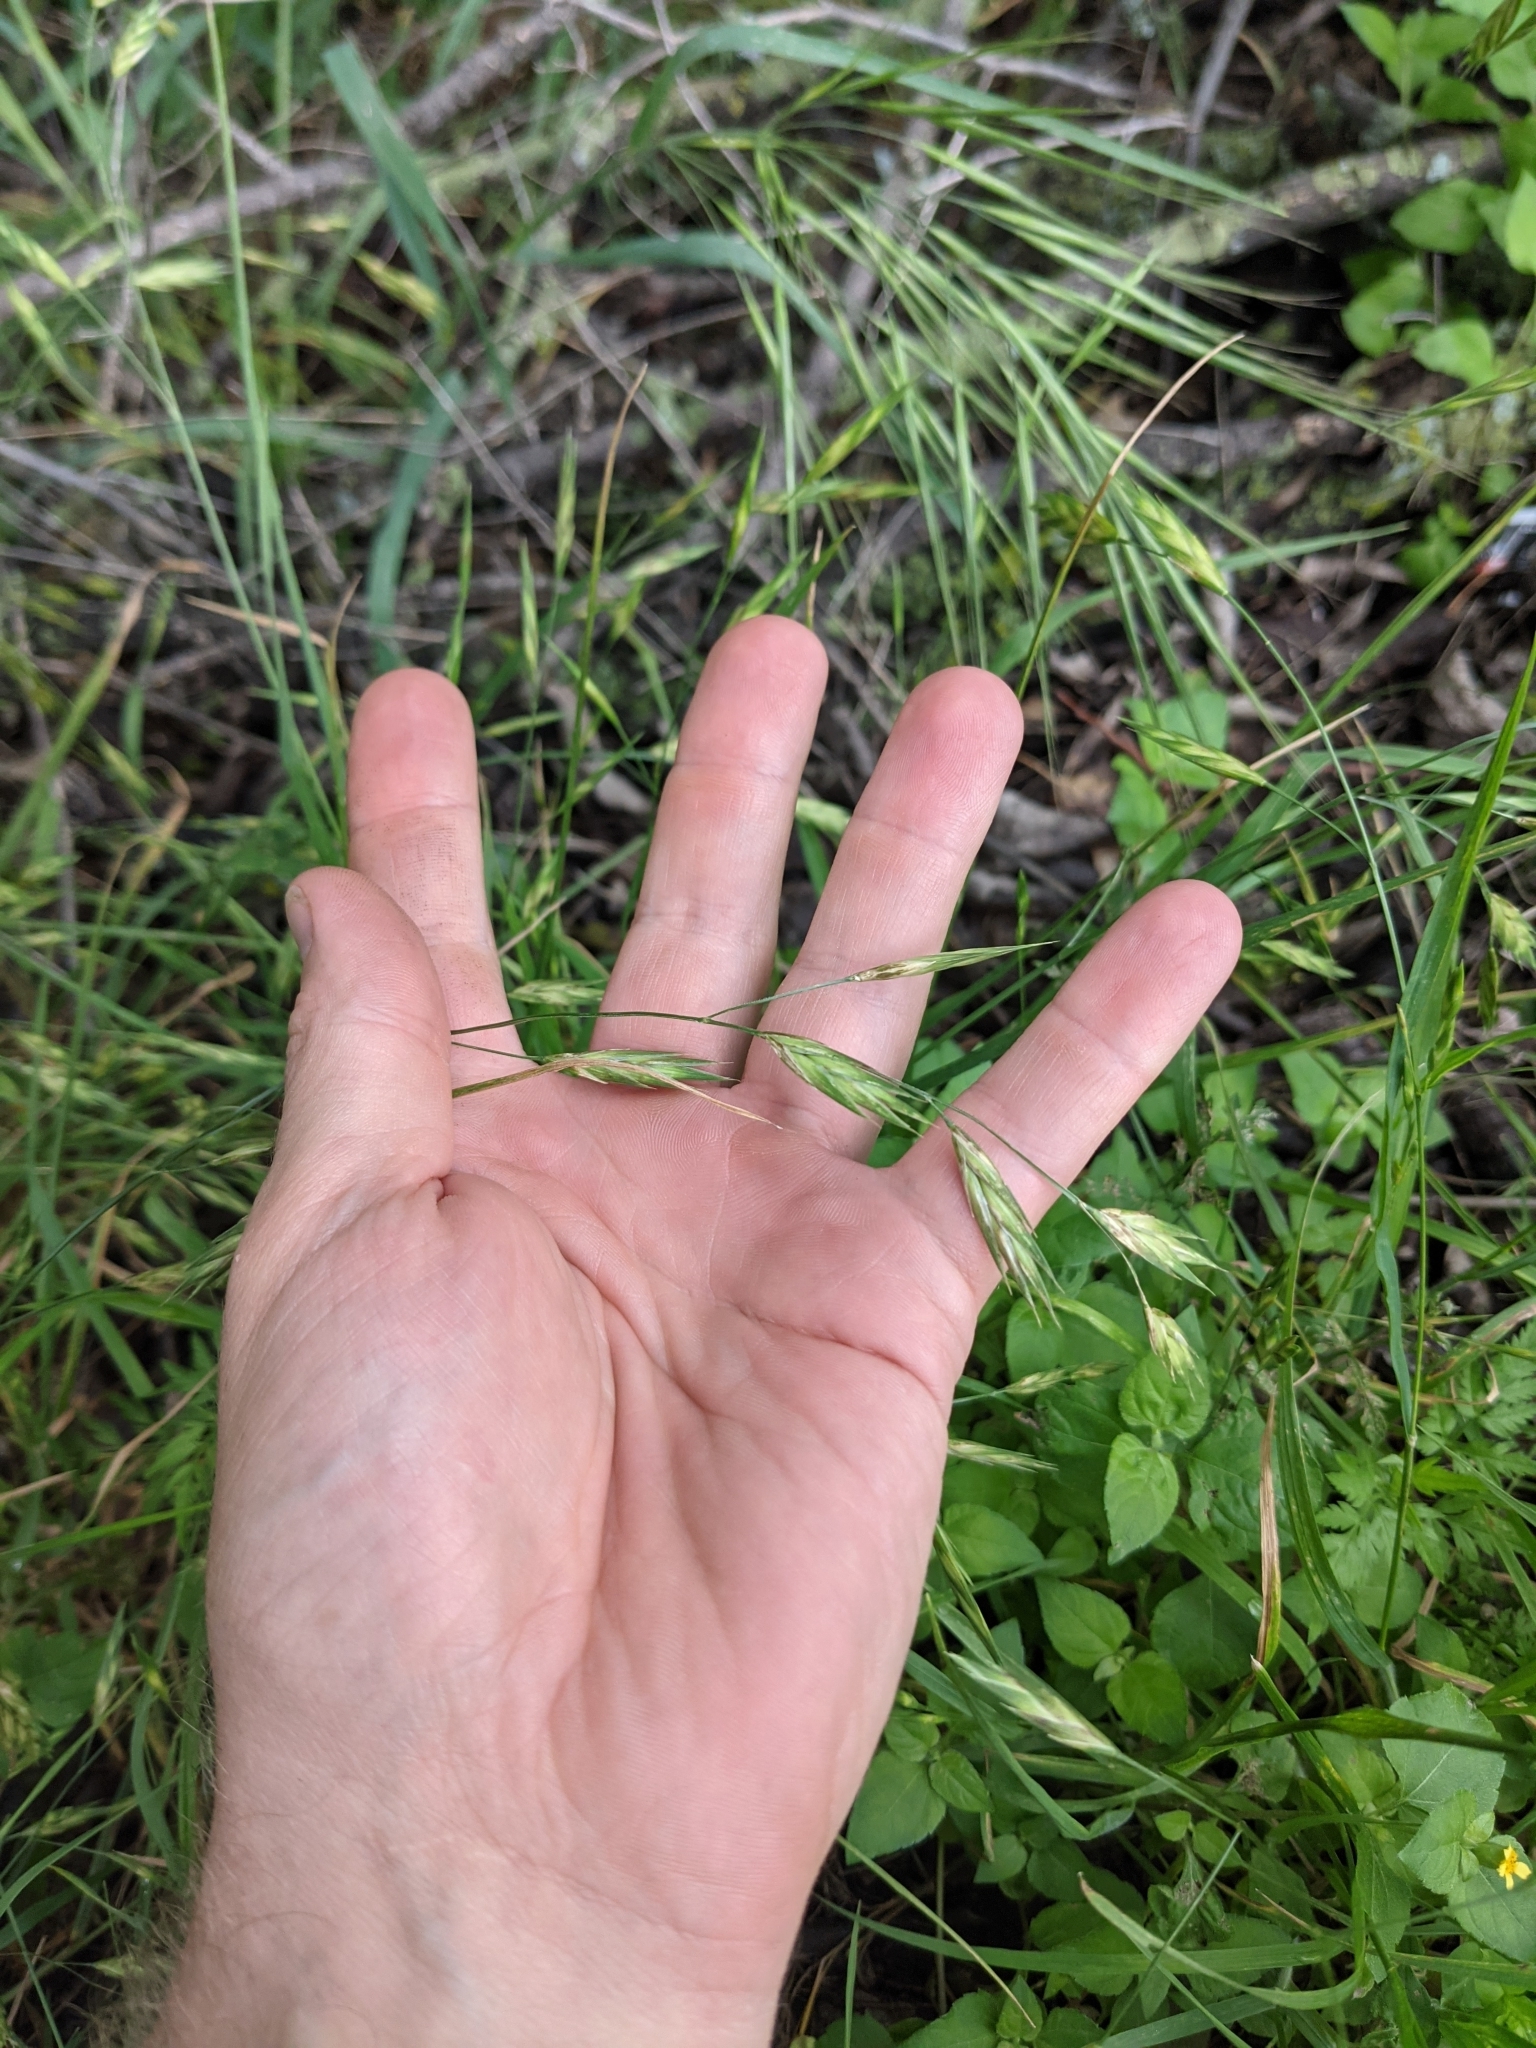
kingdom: Plantae
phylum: Tracheophyta
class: Liliopsida
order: Poales
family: Poaceae
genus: Bromus
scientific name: Bromus catharticus
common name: Rescuegrass
